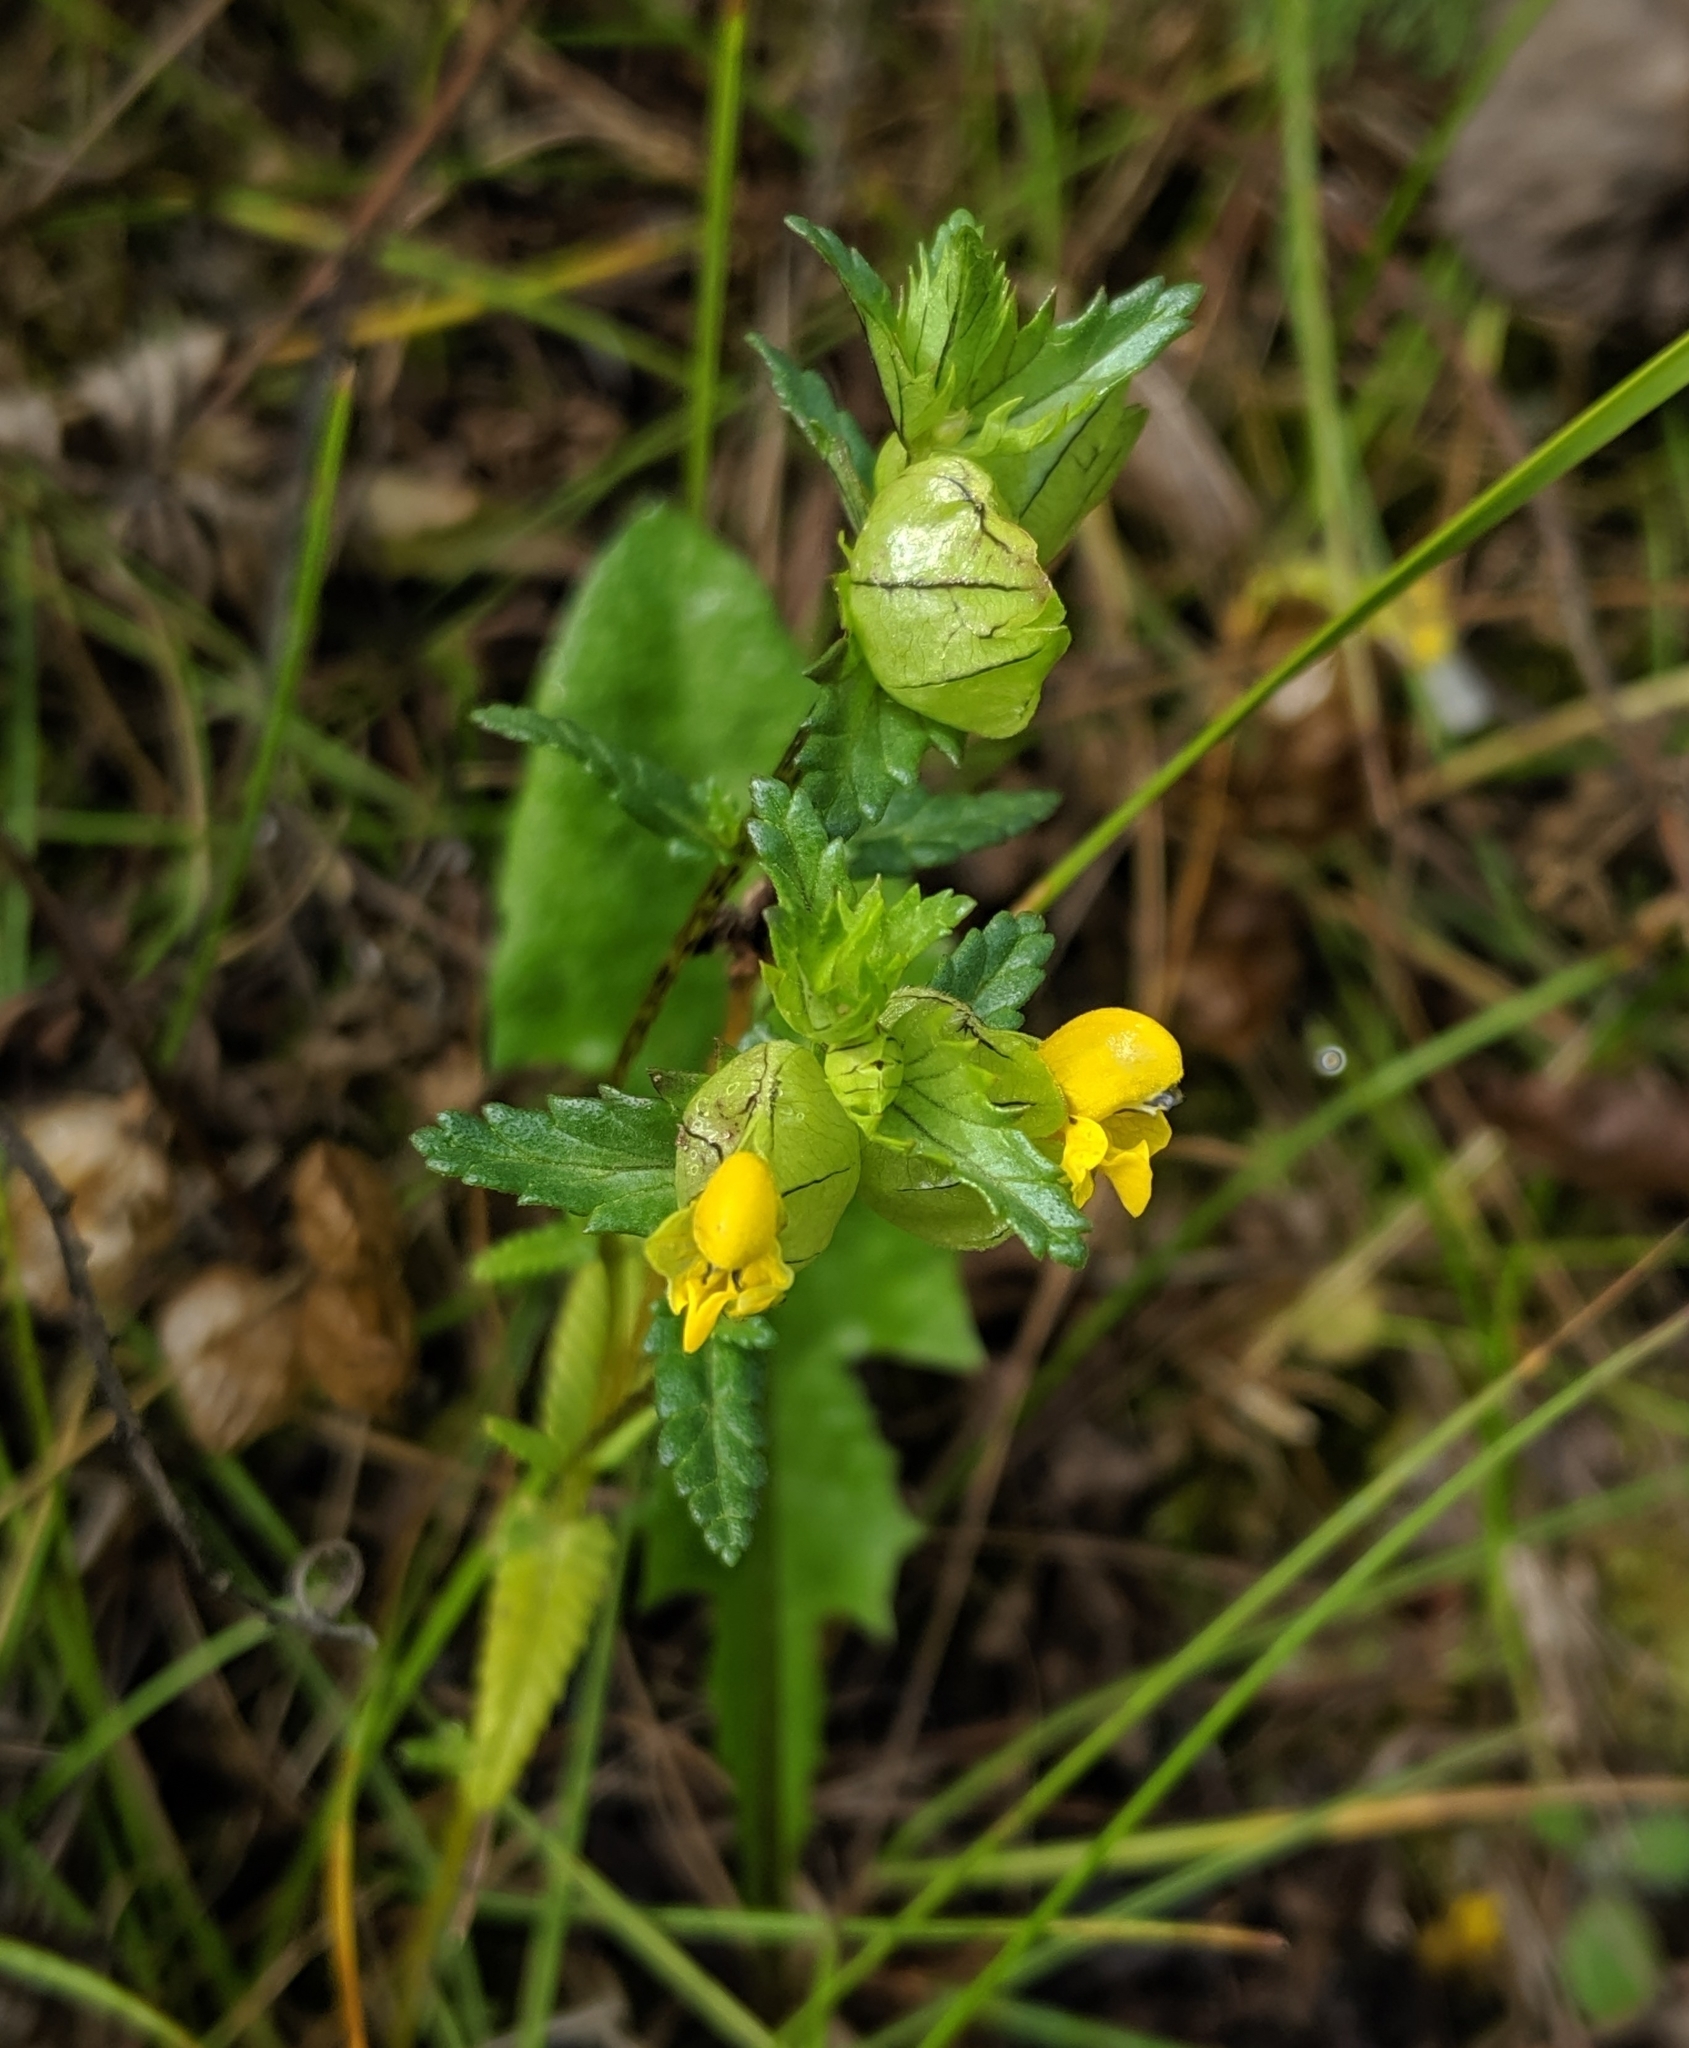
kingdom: Plantae
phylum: Tracheophyta
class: Magnoliopsida
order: Lamiales
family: Orobanchaceae
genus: Rhinanthus
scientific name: Rhinanthus minor
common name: Yellow-rattle
